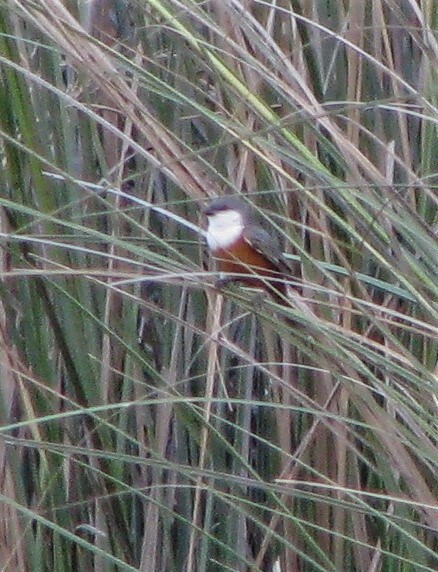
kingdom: Animalia
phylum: Chordata
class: Aves
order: Passeriformes
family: Thraupidae
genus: Sporophila
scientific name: Sporophila palustris
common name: Marsh seedeater
